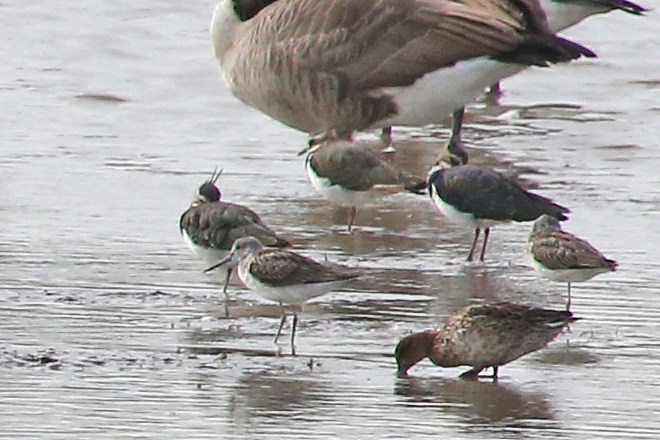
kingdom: Animalia
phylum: Chordata
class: Aves
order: Charadriiformes
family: Scolopacidae
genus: Tringa
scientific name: Tringa nebularia
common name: Common greenshank
